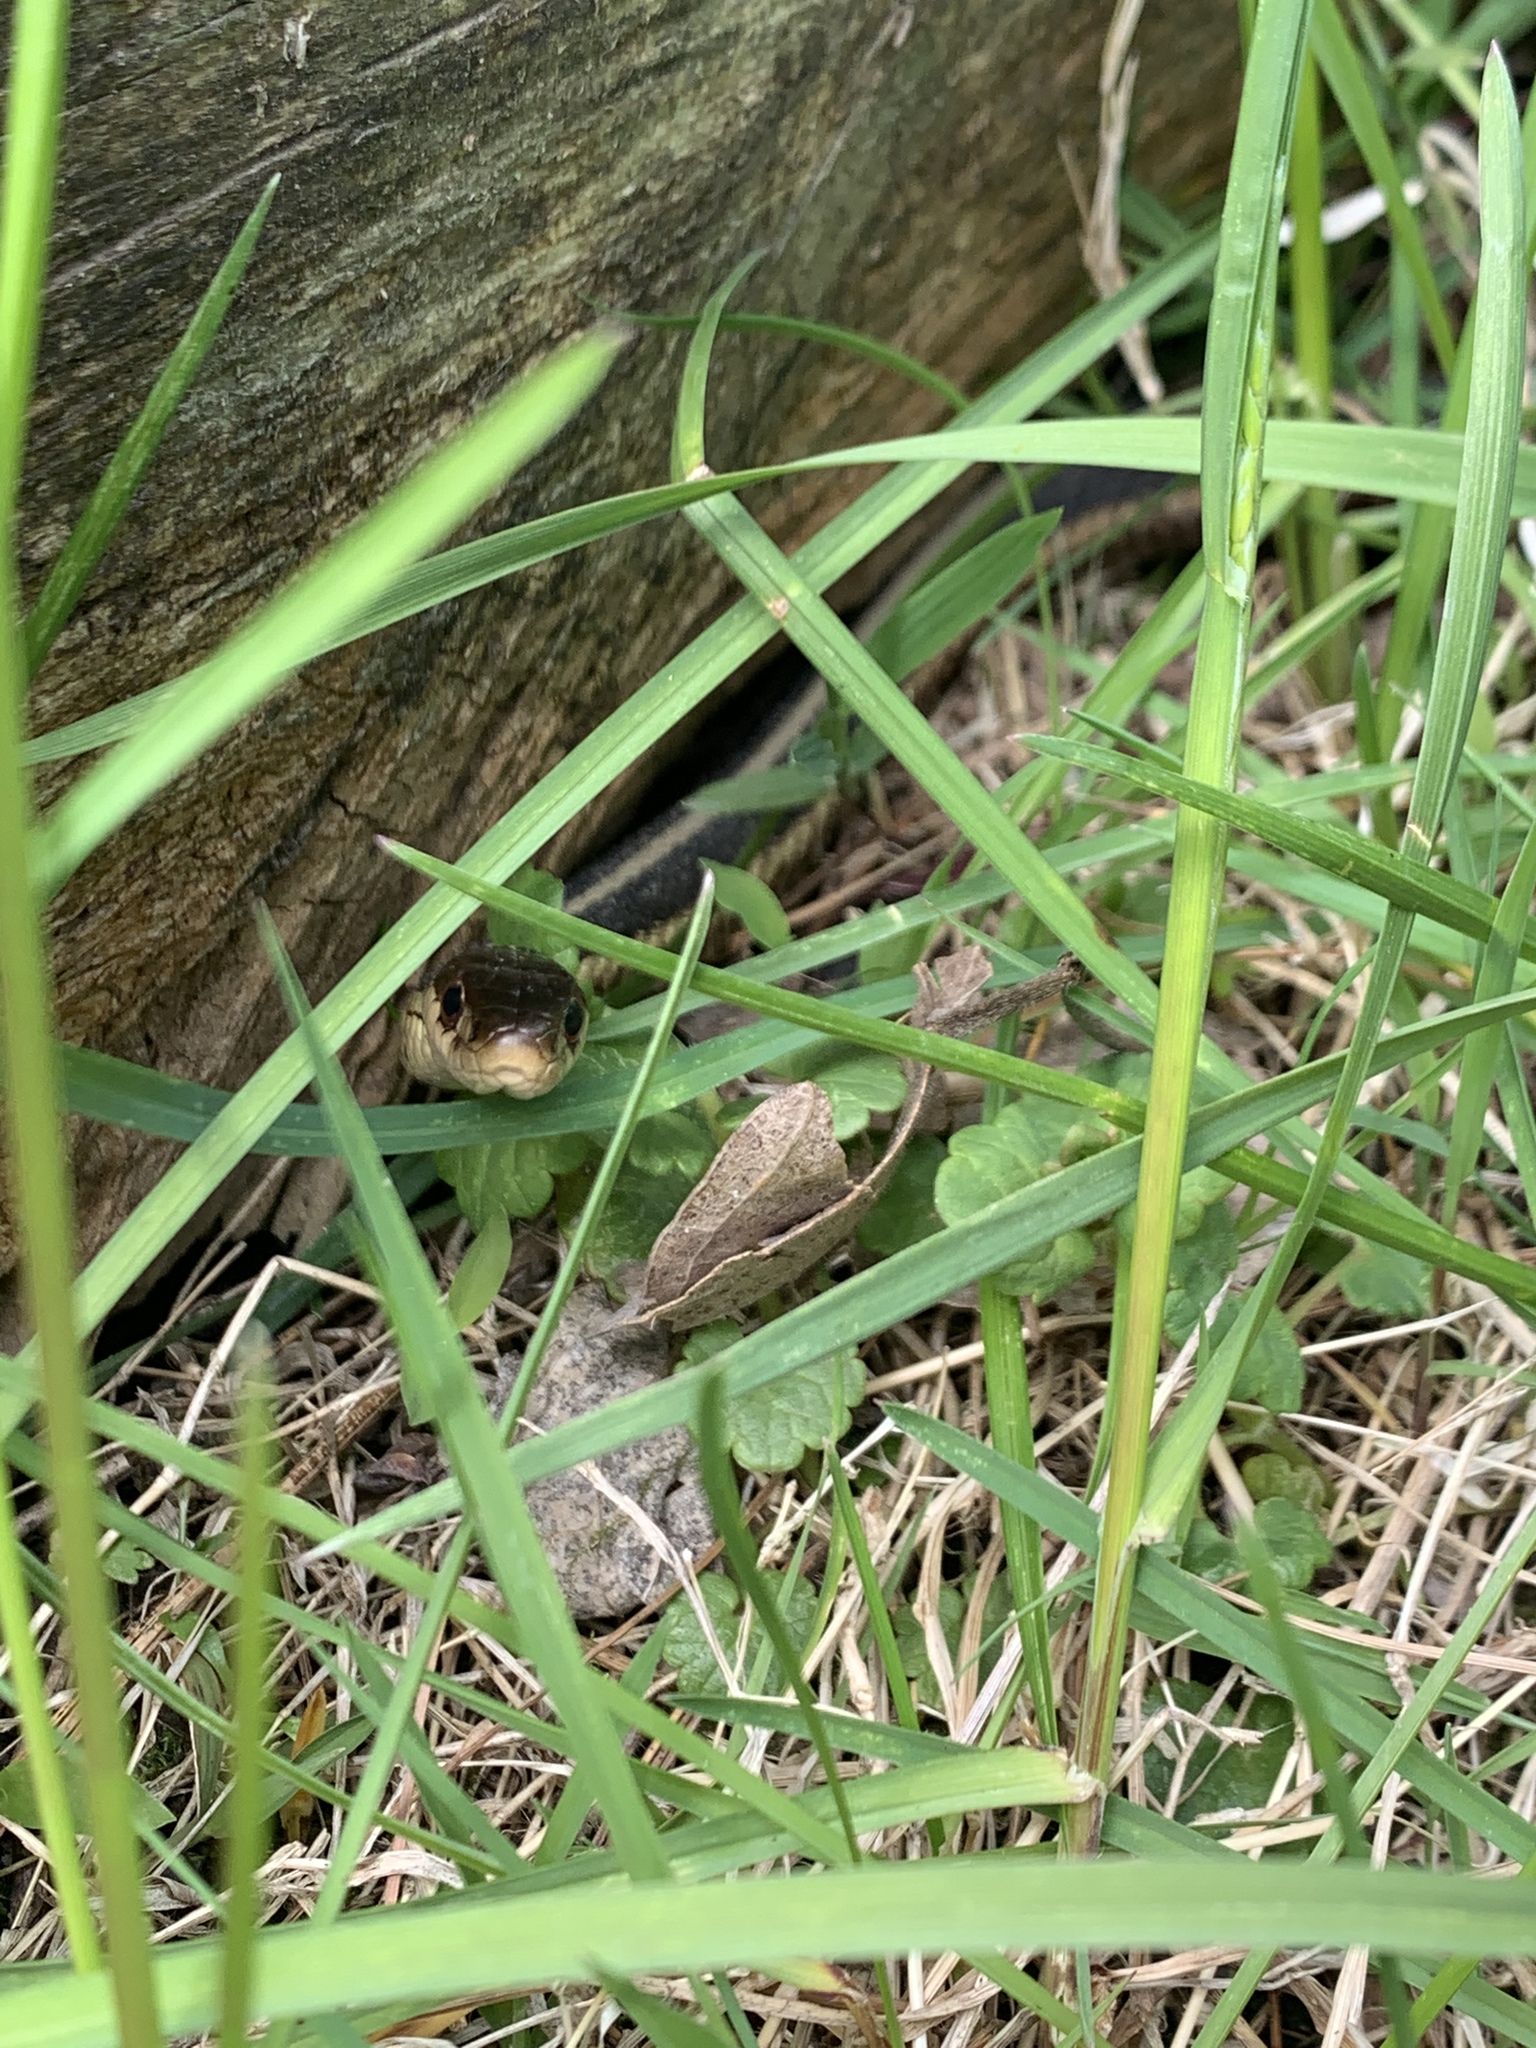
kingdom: Animalia
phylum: Chordata
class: Squamata
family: Colubridae
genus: Thamnophis
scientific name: Thamnophis sirtalis
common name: Common garter snake
